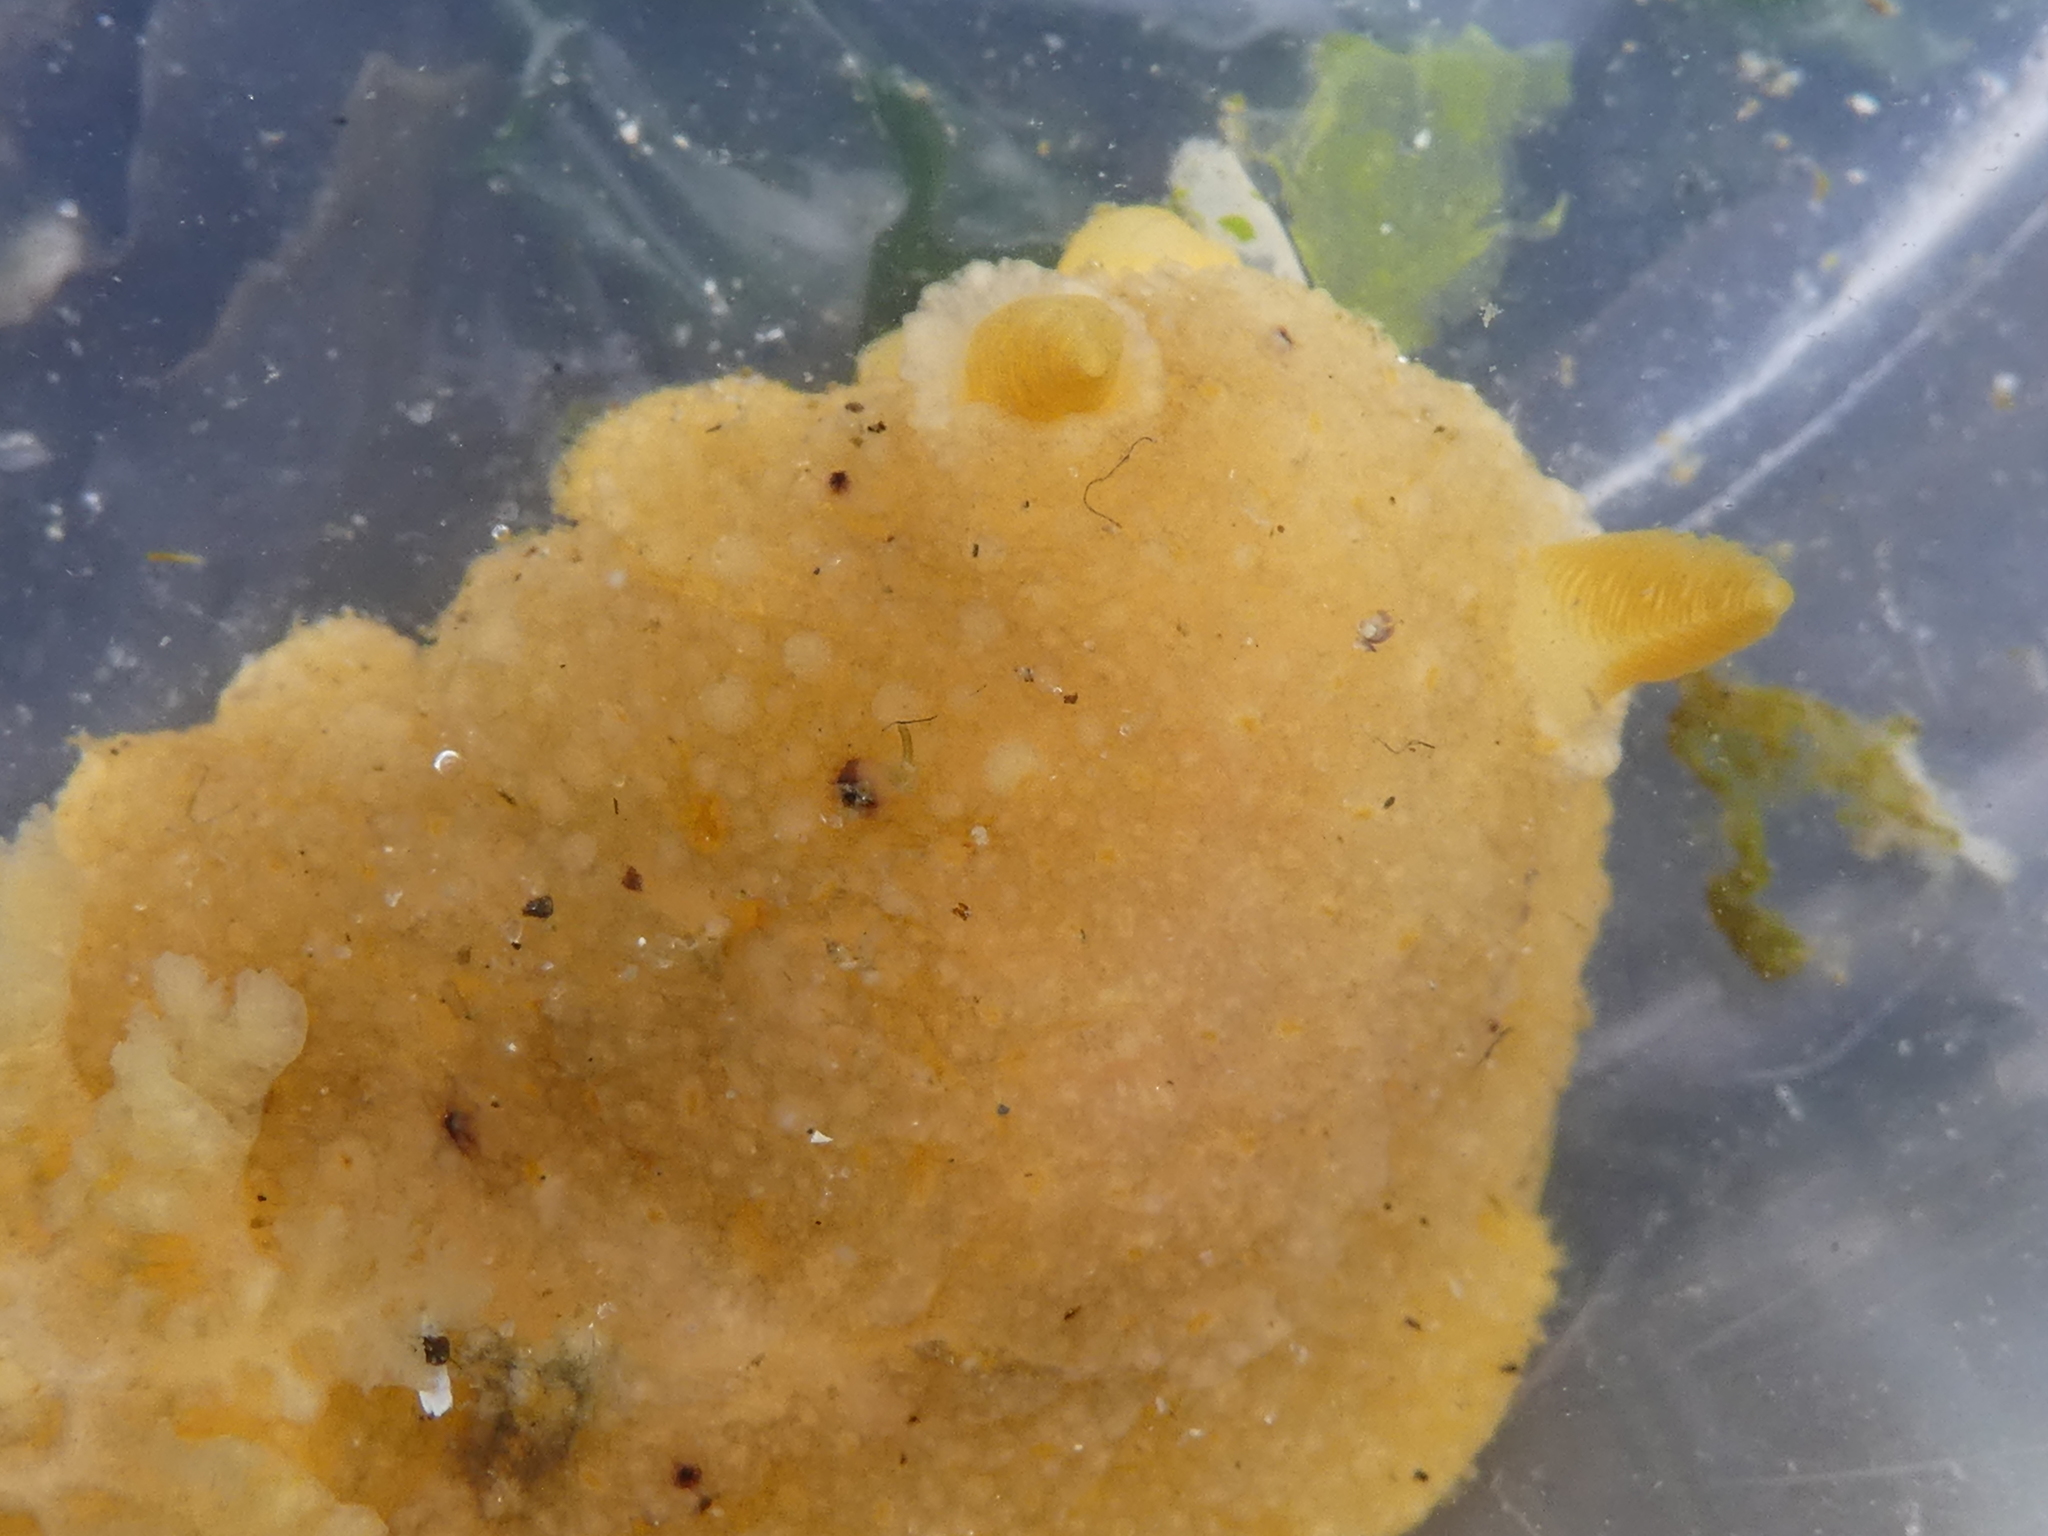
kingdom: Animalia
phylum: Mollusca
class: Gastropoda
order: Nudibranchia
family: Discodorididae
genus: Geitodoris
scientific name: Geitodoris heathi
